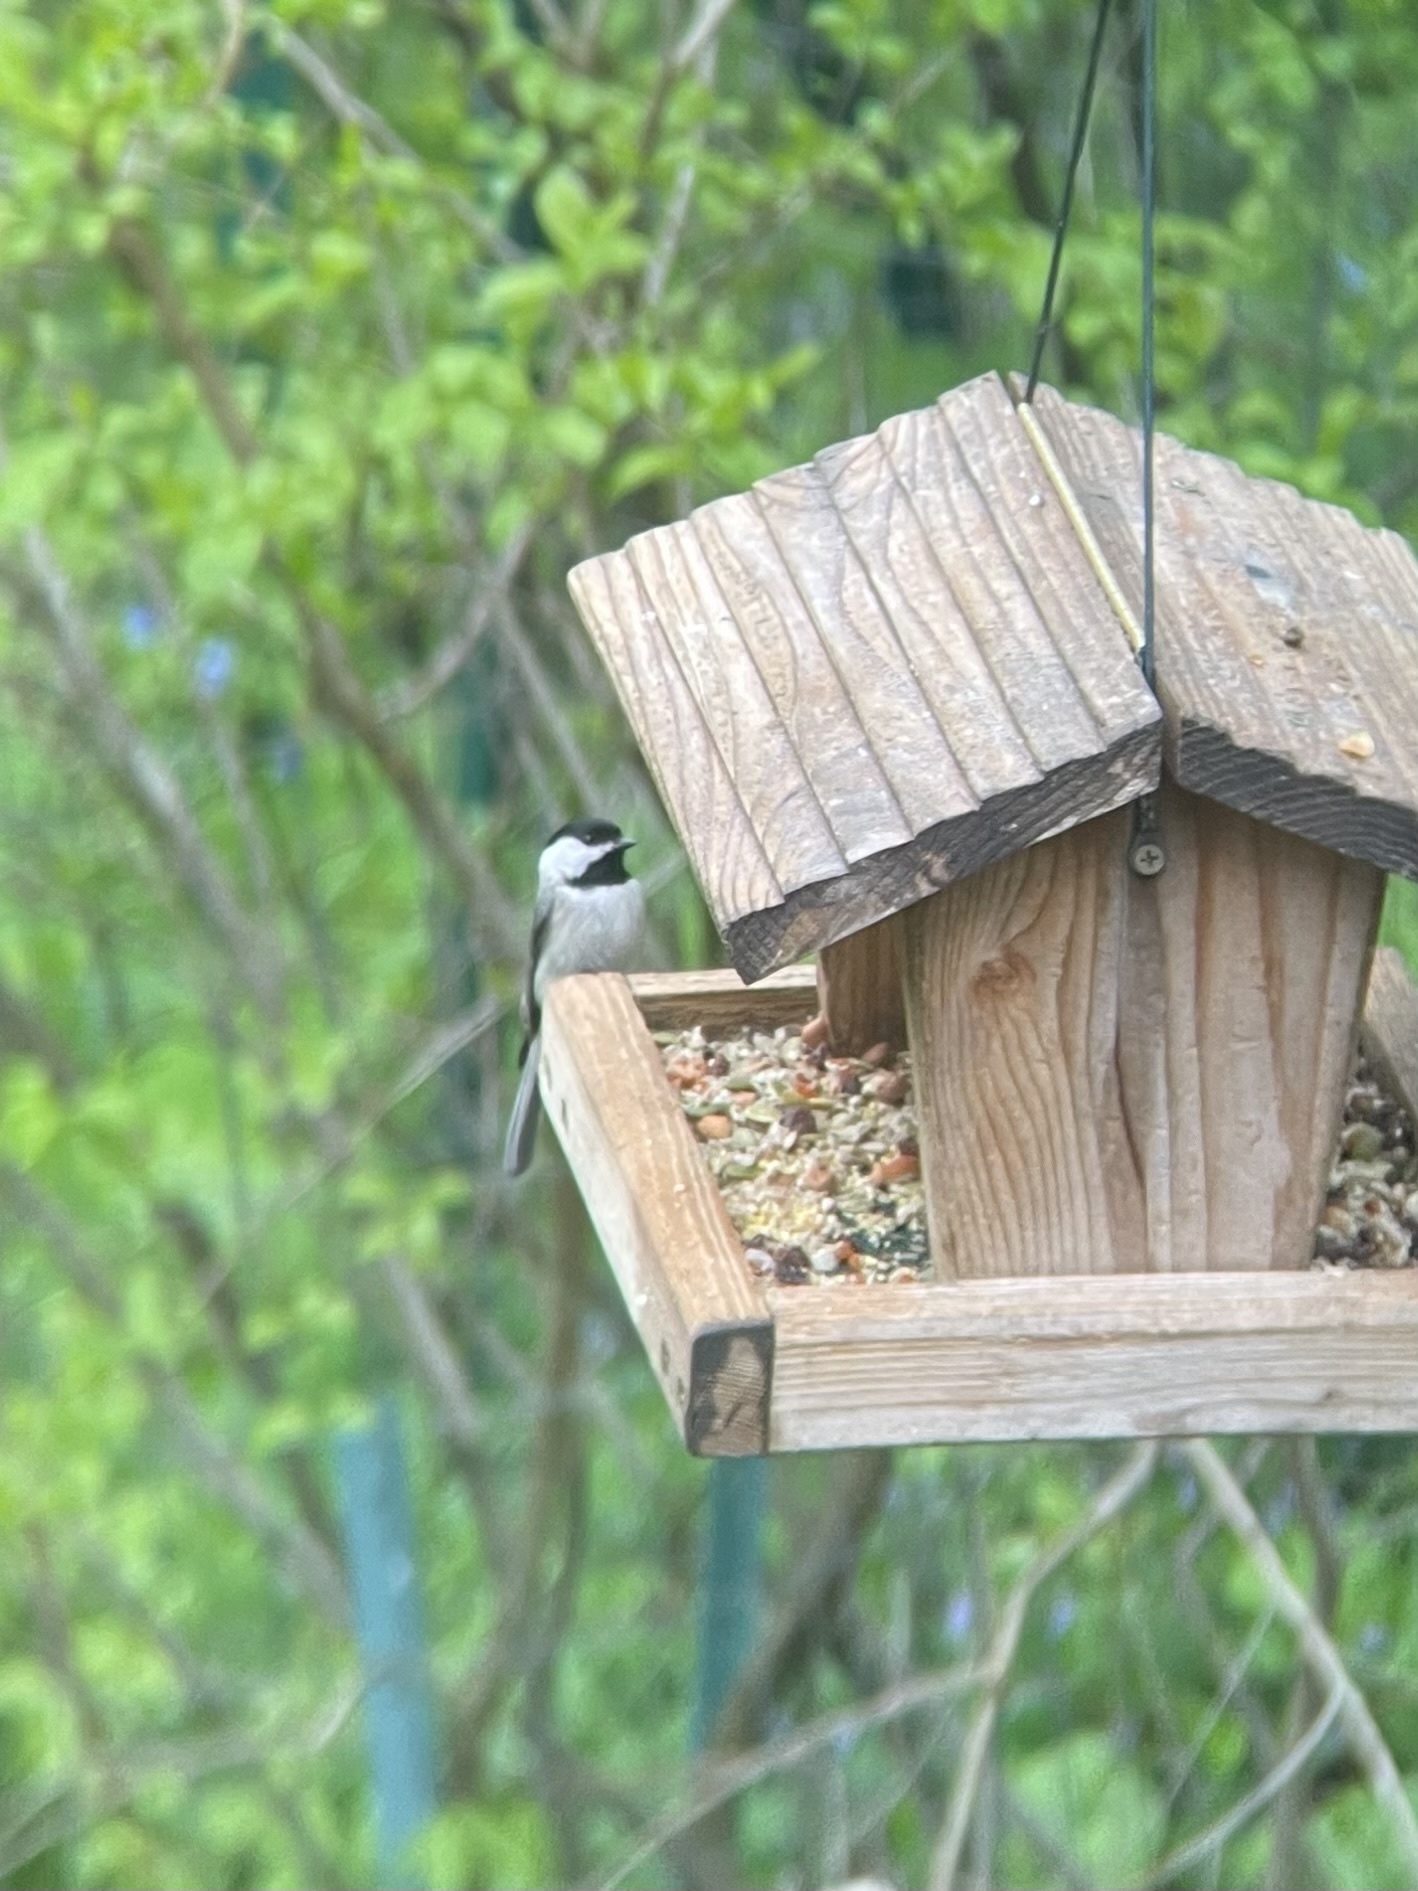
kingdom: Animalia
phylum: Chordata
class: Aves
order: Passeriformes
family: Paridae
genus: Poecile
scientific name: Poecile carolinensis
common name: Carolina chickadee
